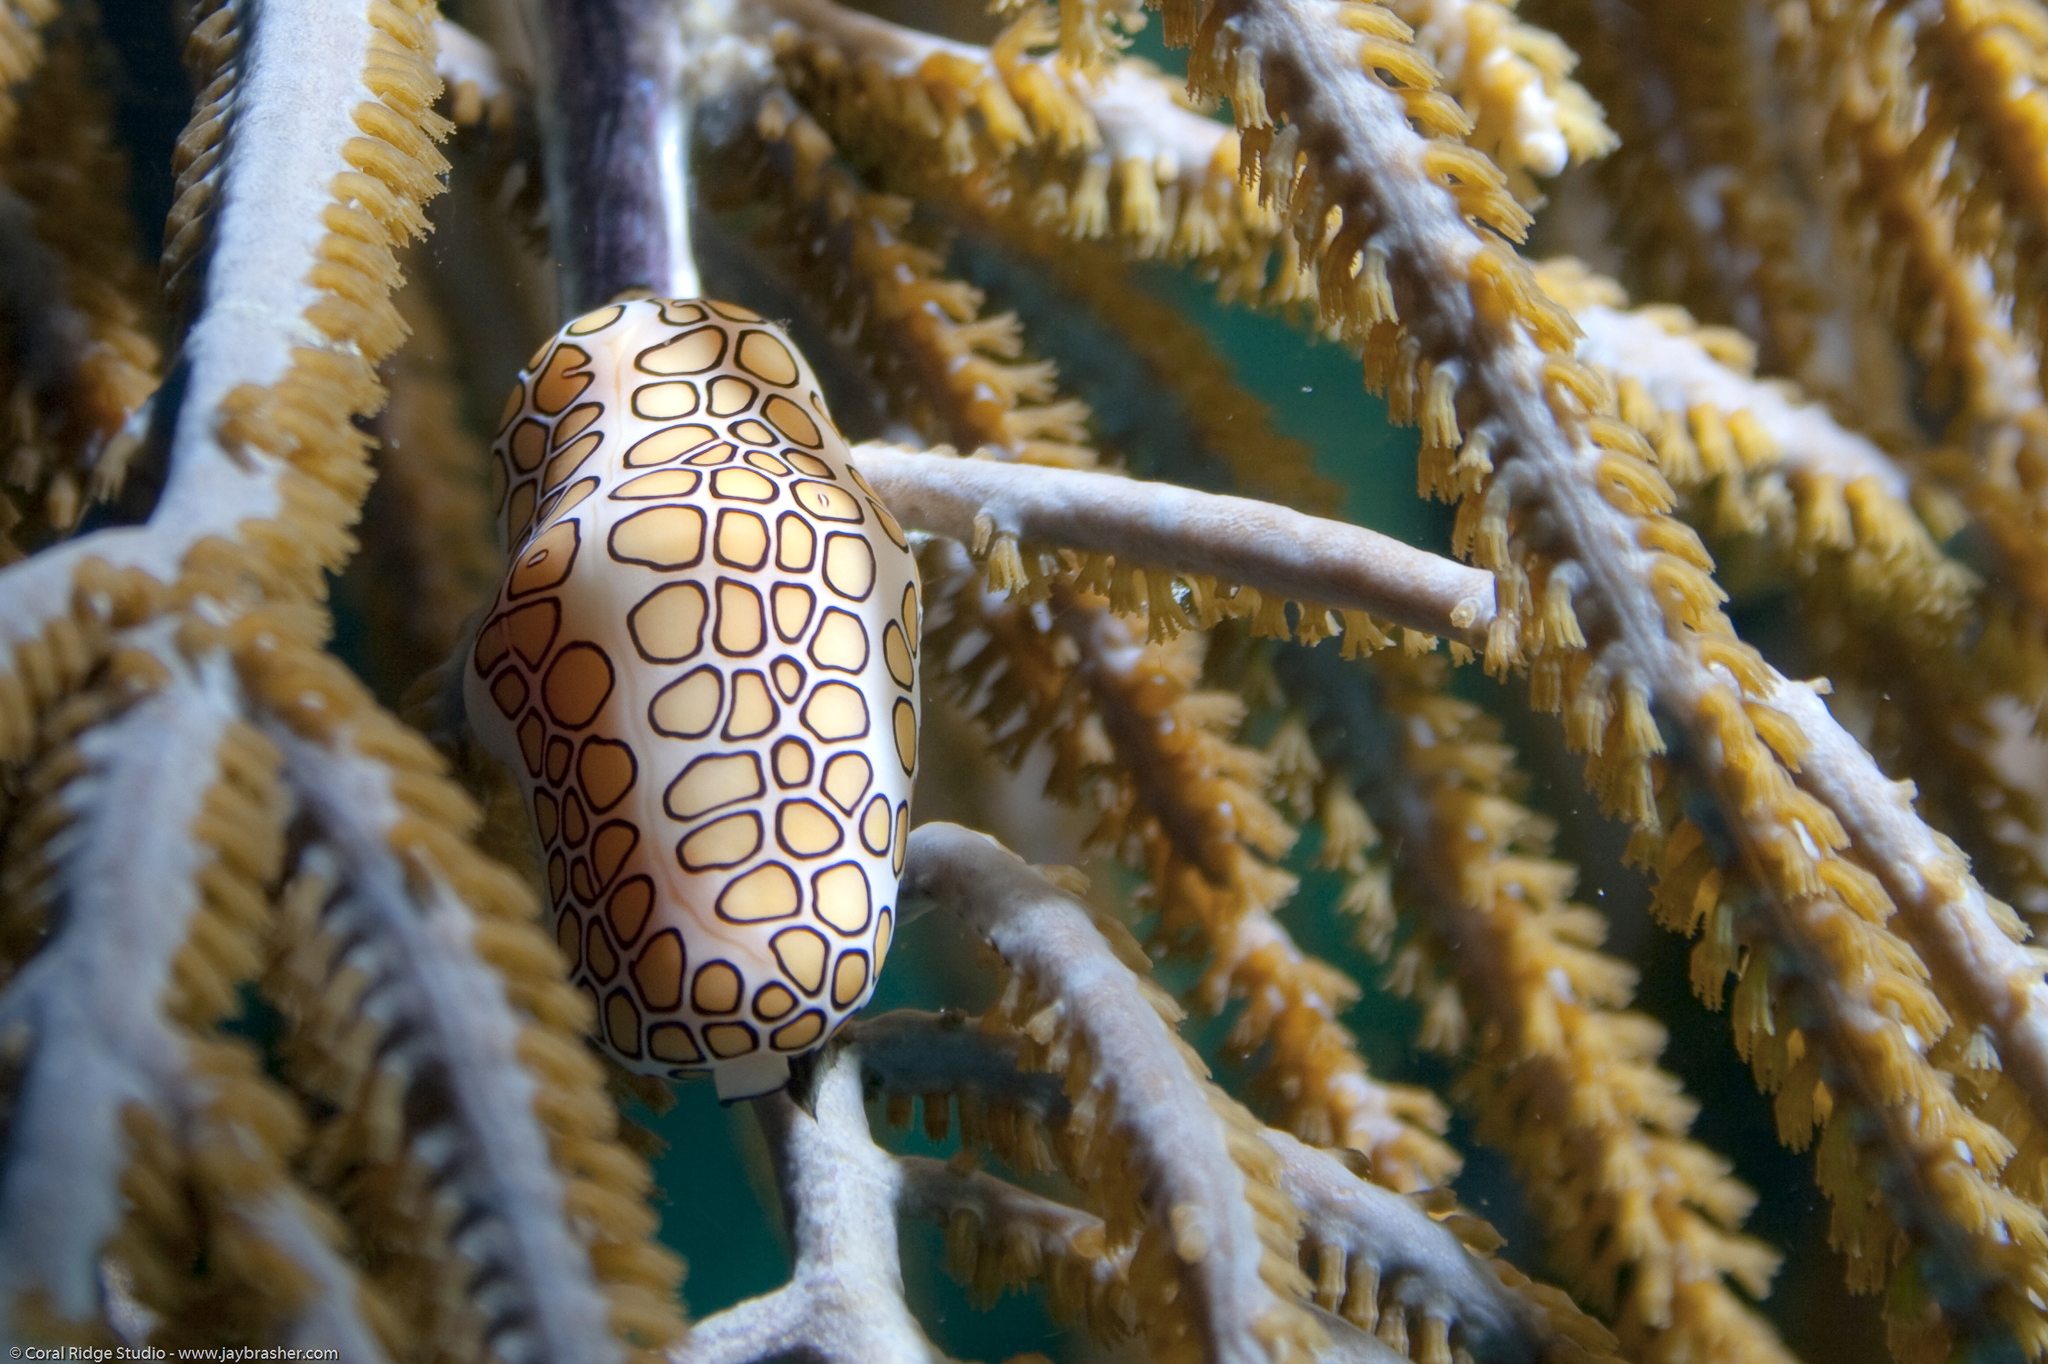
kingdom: Animalia
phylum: Mollusca
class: Gastropoda
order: Littorinimorpha
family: Ovulidae
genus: Cyphoma
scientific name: Cyphoma gibbosum
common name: Flamingo tongue
